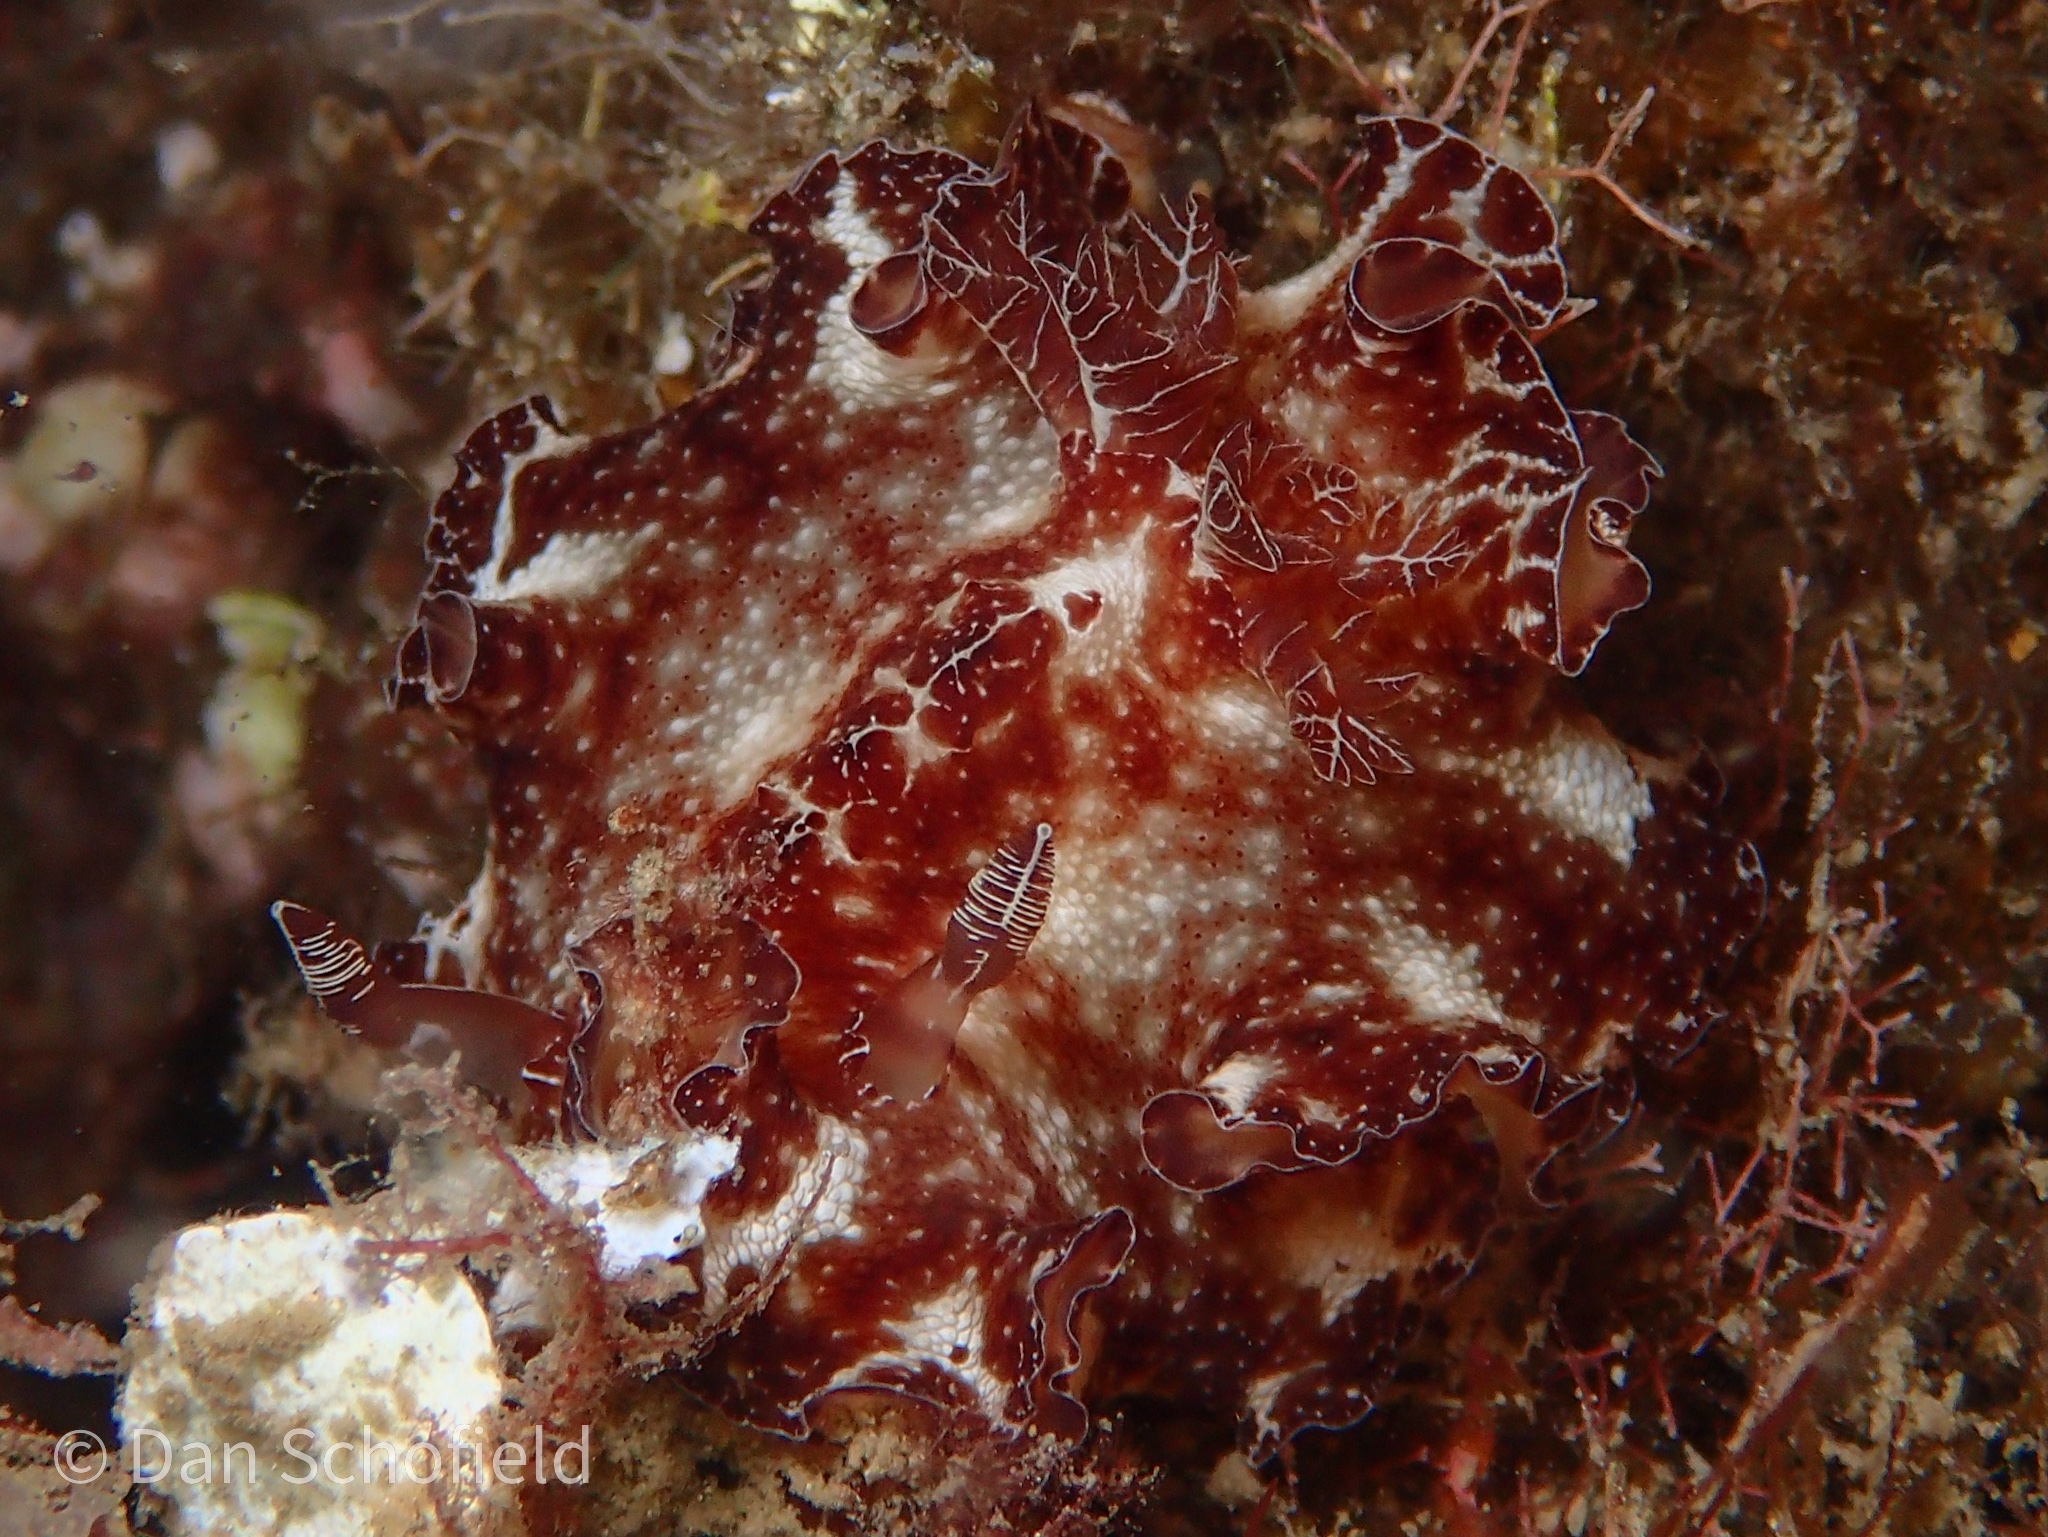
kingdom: Animalia
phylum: Mollusca
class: Gastropoda
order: Nudibranchia
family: Discodorididae
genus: Discodoris
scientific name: Discodoris boholiensis
